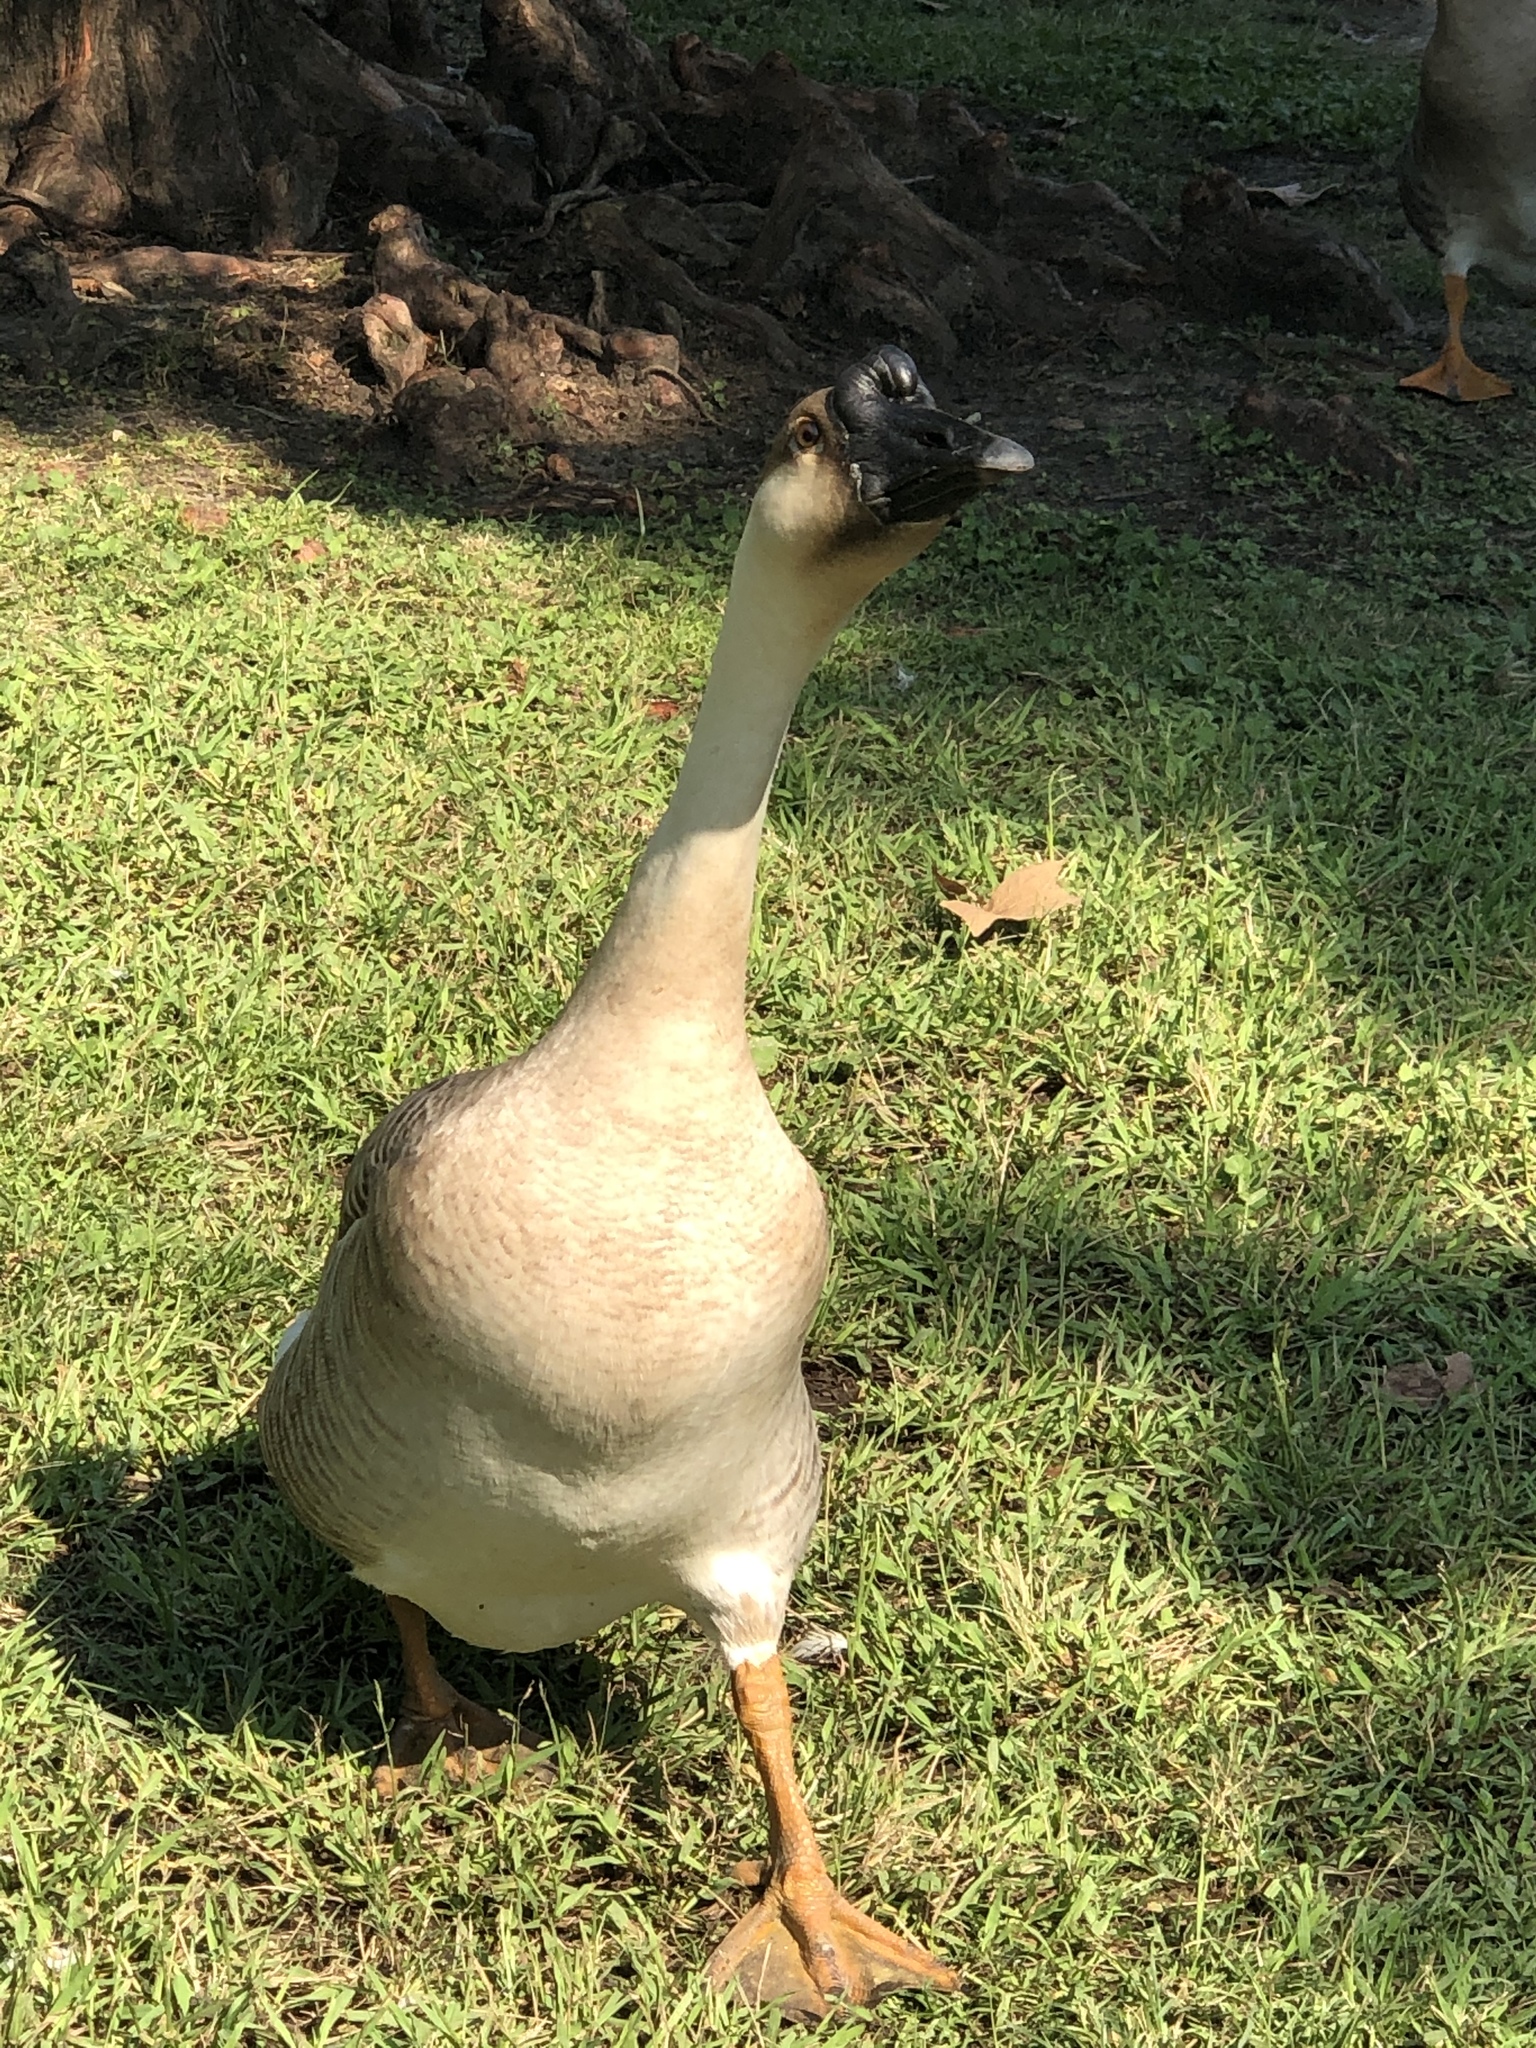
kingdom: Animalia
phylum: Chordata
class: Aves
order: Anseriformes
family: Anatidae
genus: Anser
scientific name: Anser cygnoides
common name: Swan goose
